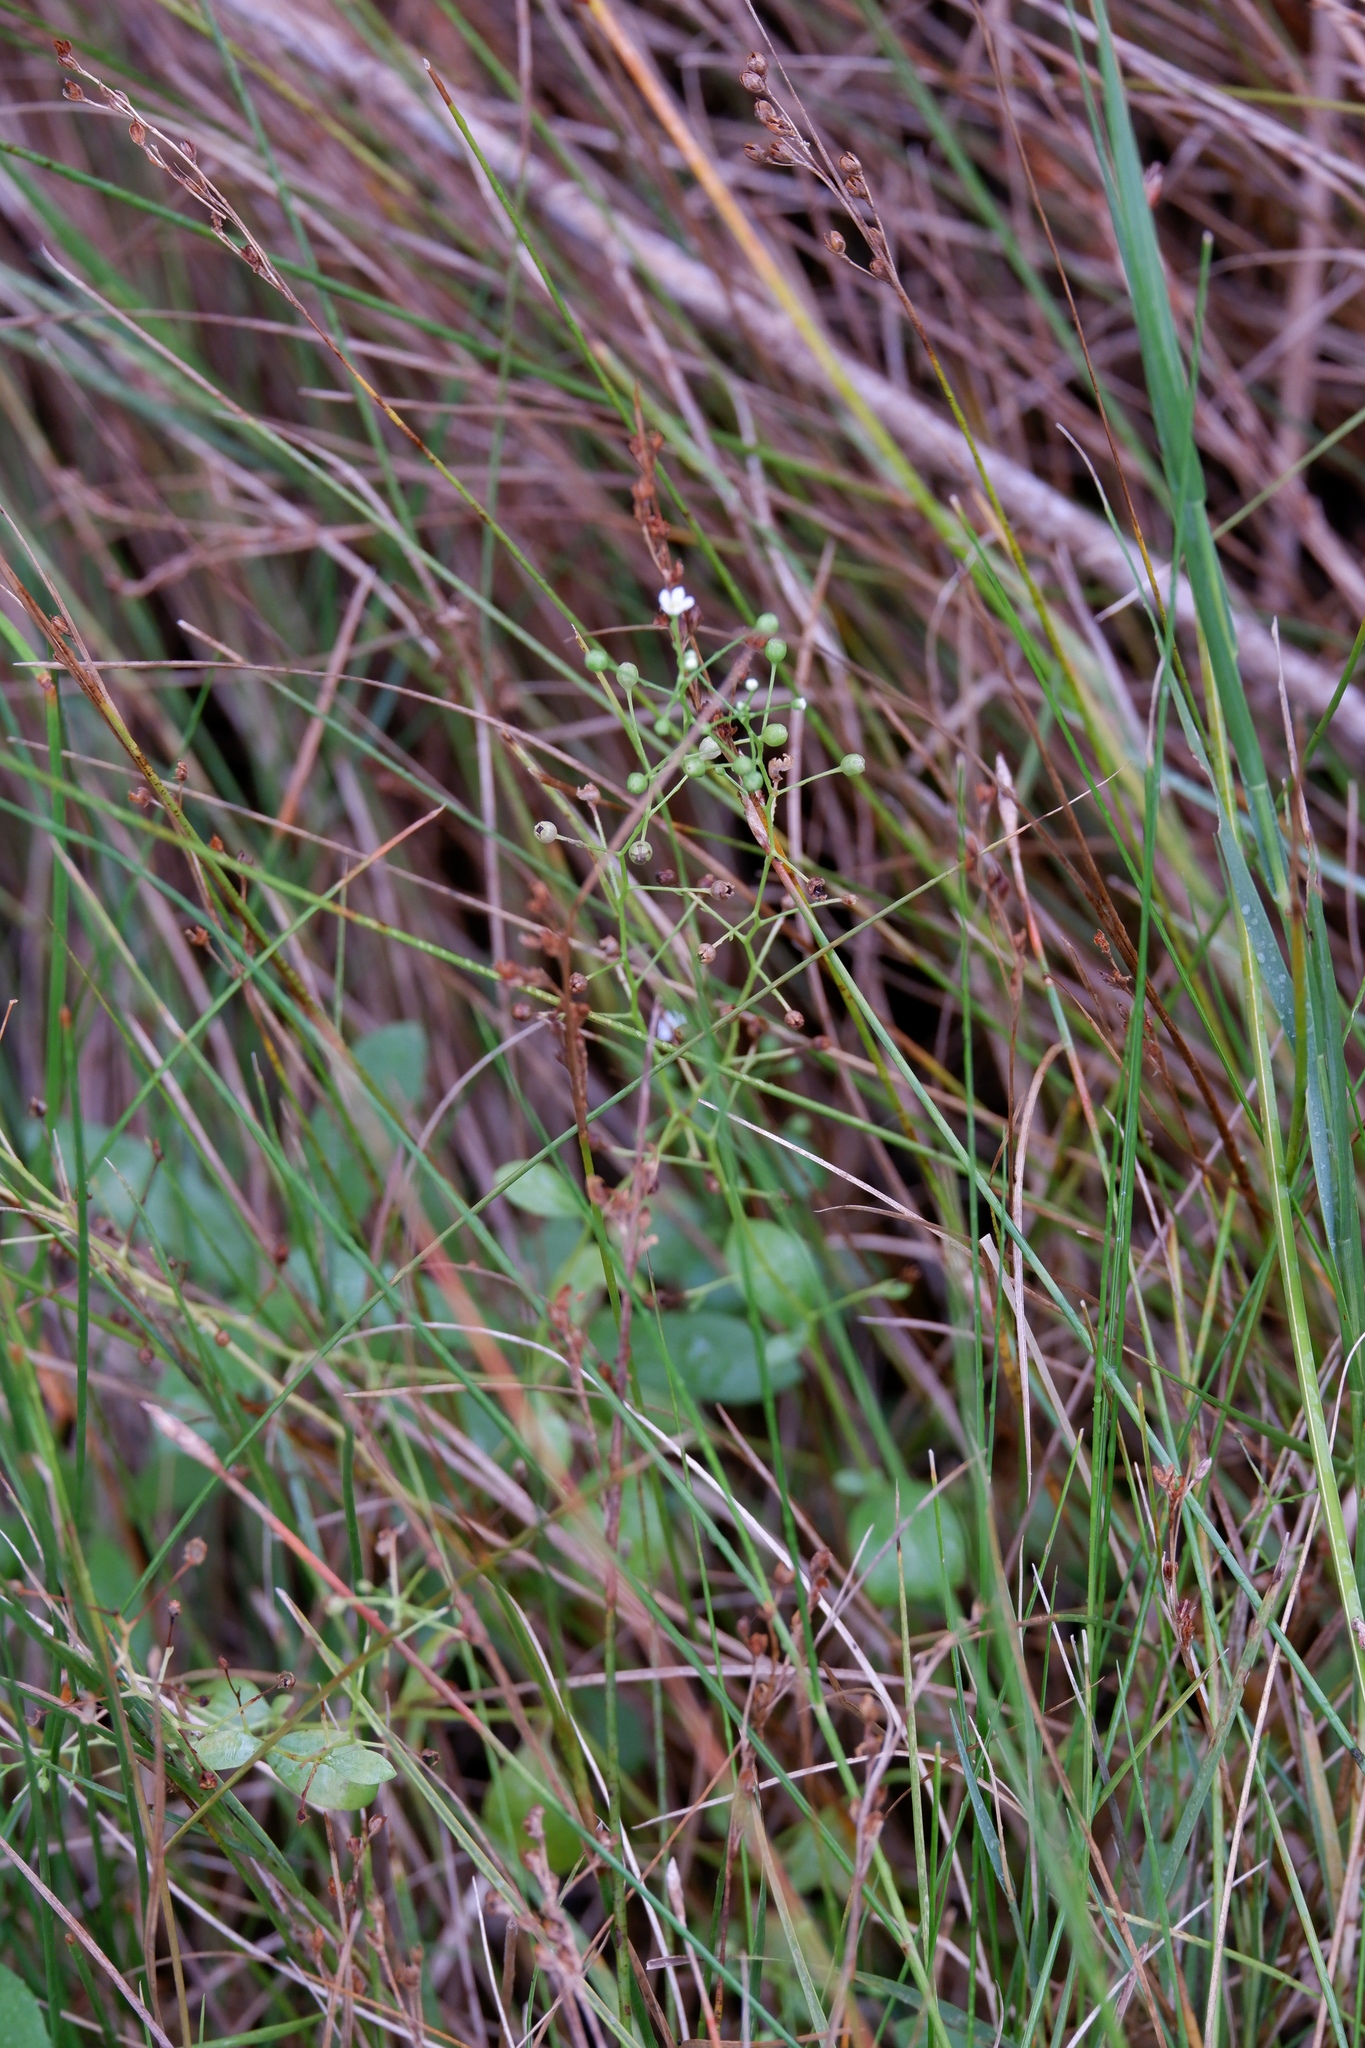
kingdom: Plantae
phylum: Tracheophyta
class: Magnoliopsida
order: Ericales
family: Primulaceae
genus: Samolus
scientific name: Samolus parviflorus
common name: False water pimpernel
